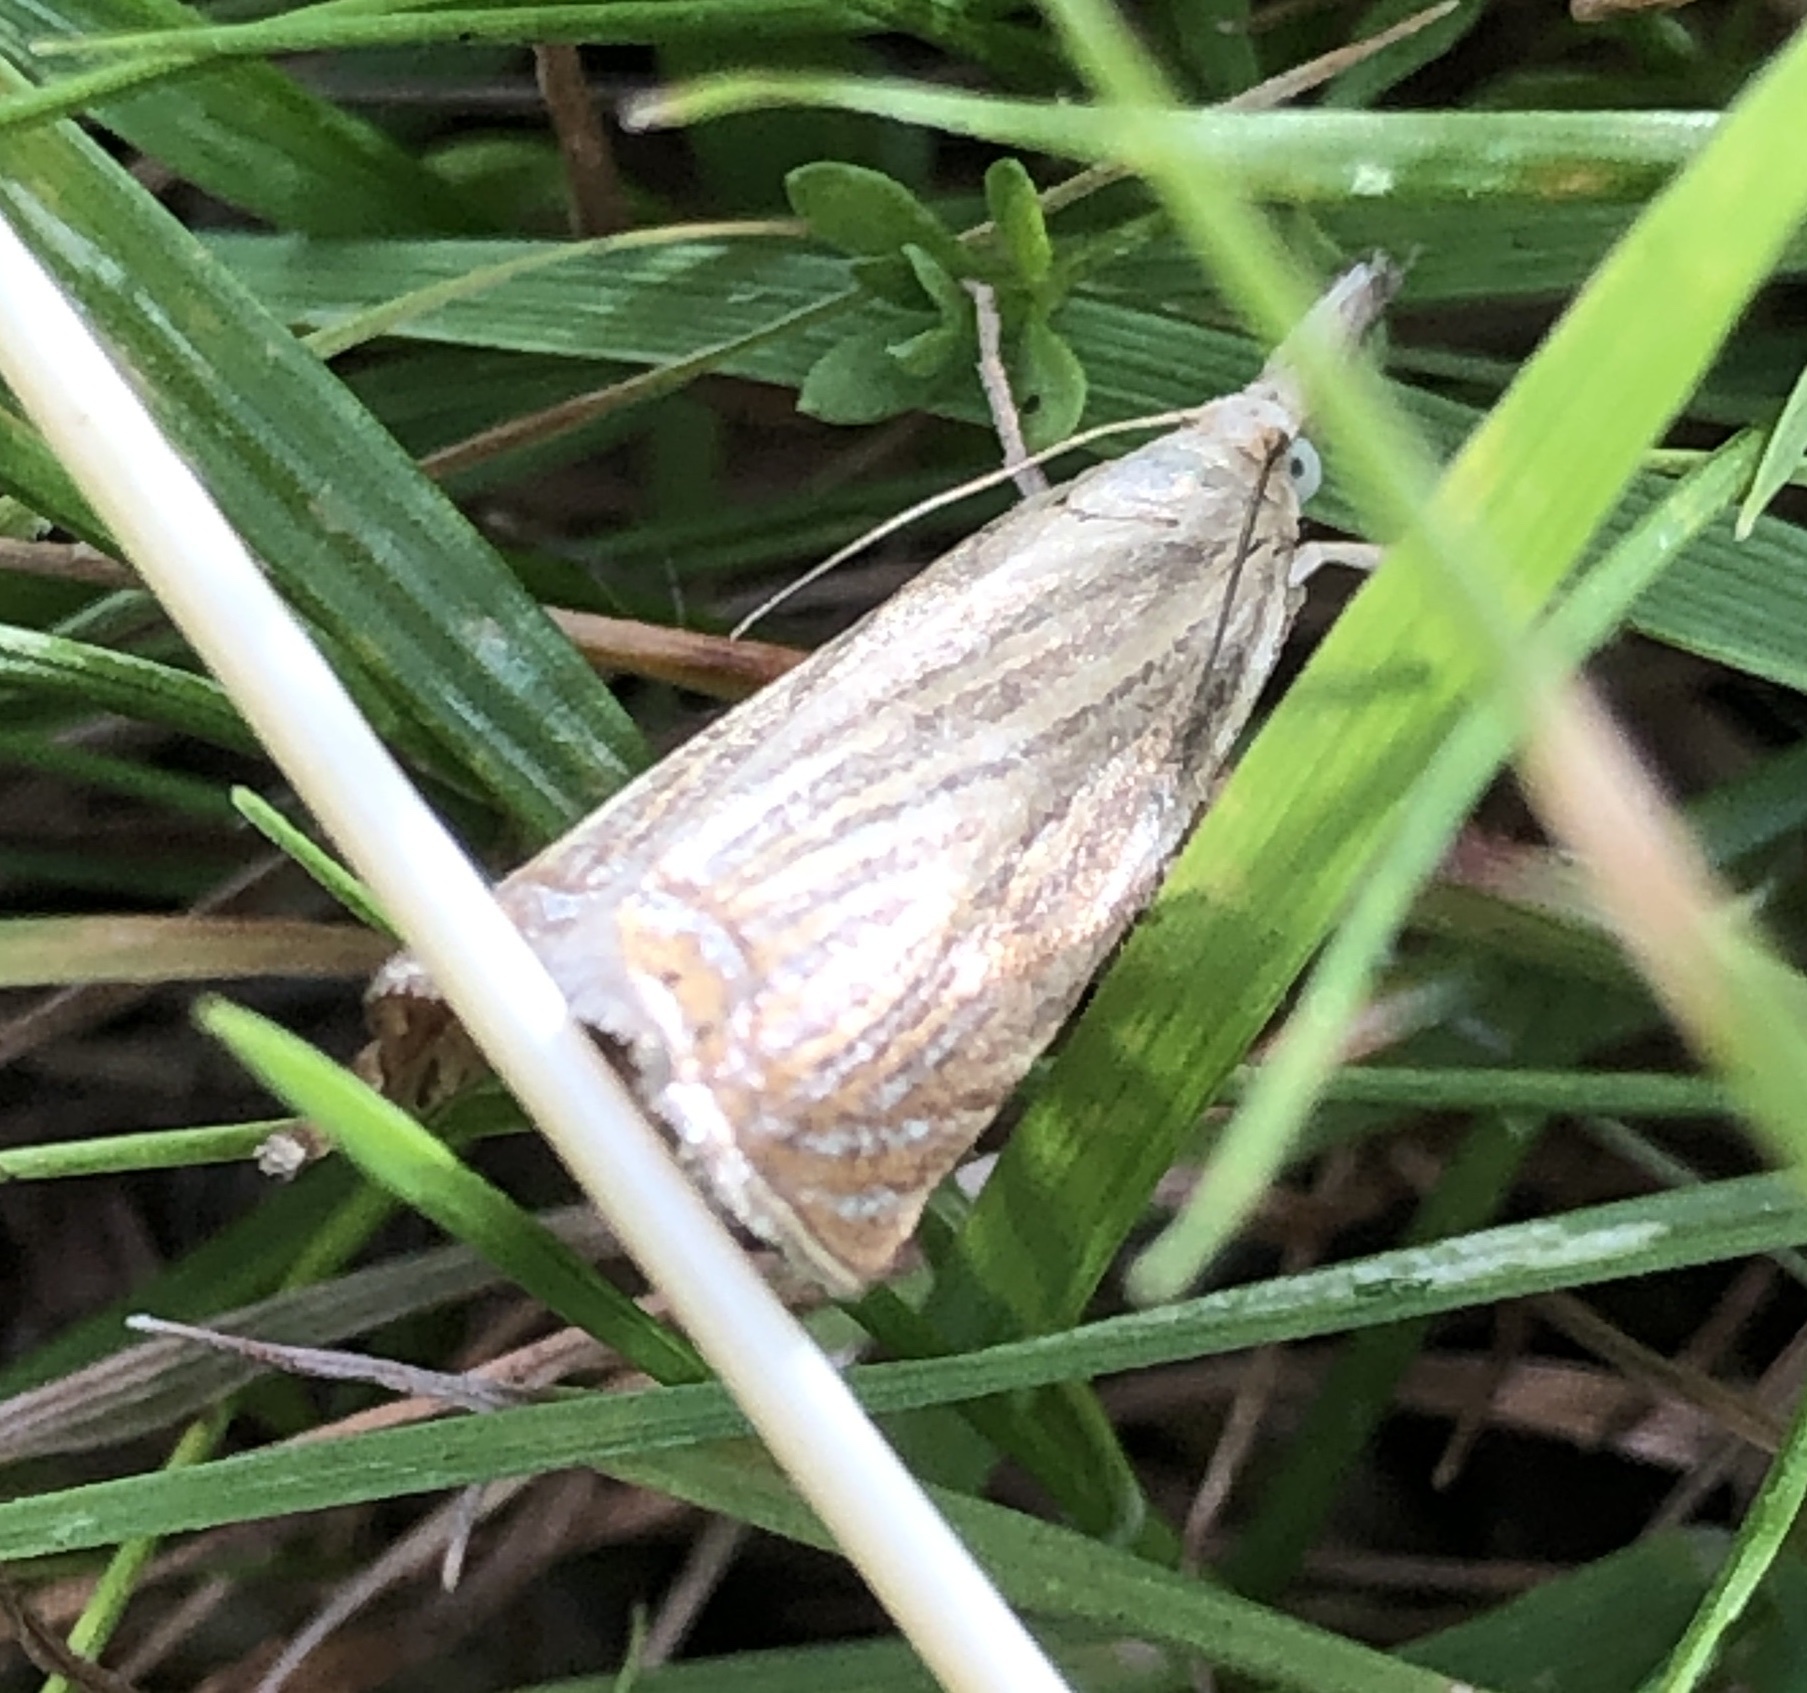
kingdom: Animalia
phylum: Arthropoda
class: Insecta
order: Lepidoptera
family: Crambidae
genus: Chrysoteuchia
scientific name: Chrysoteuchia culmella
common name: Garden grass-veneer
